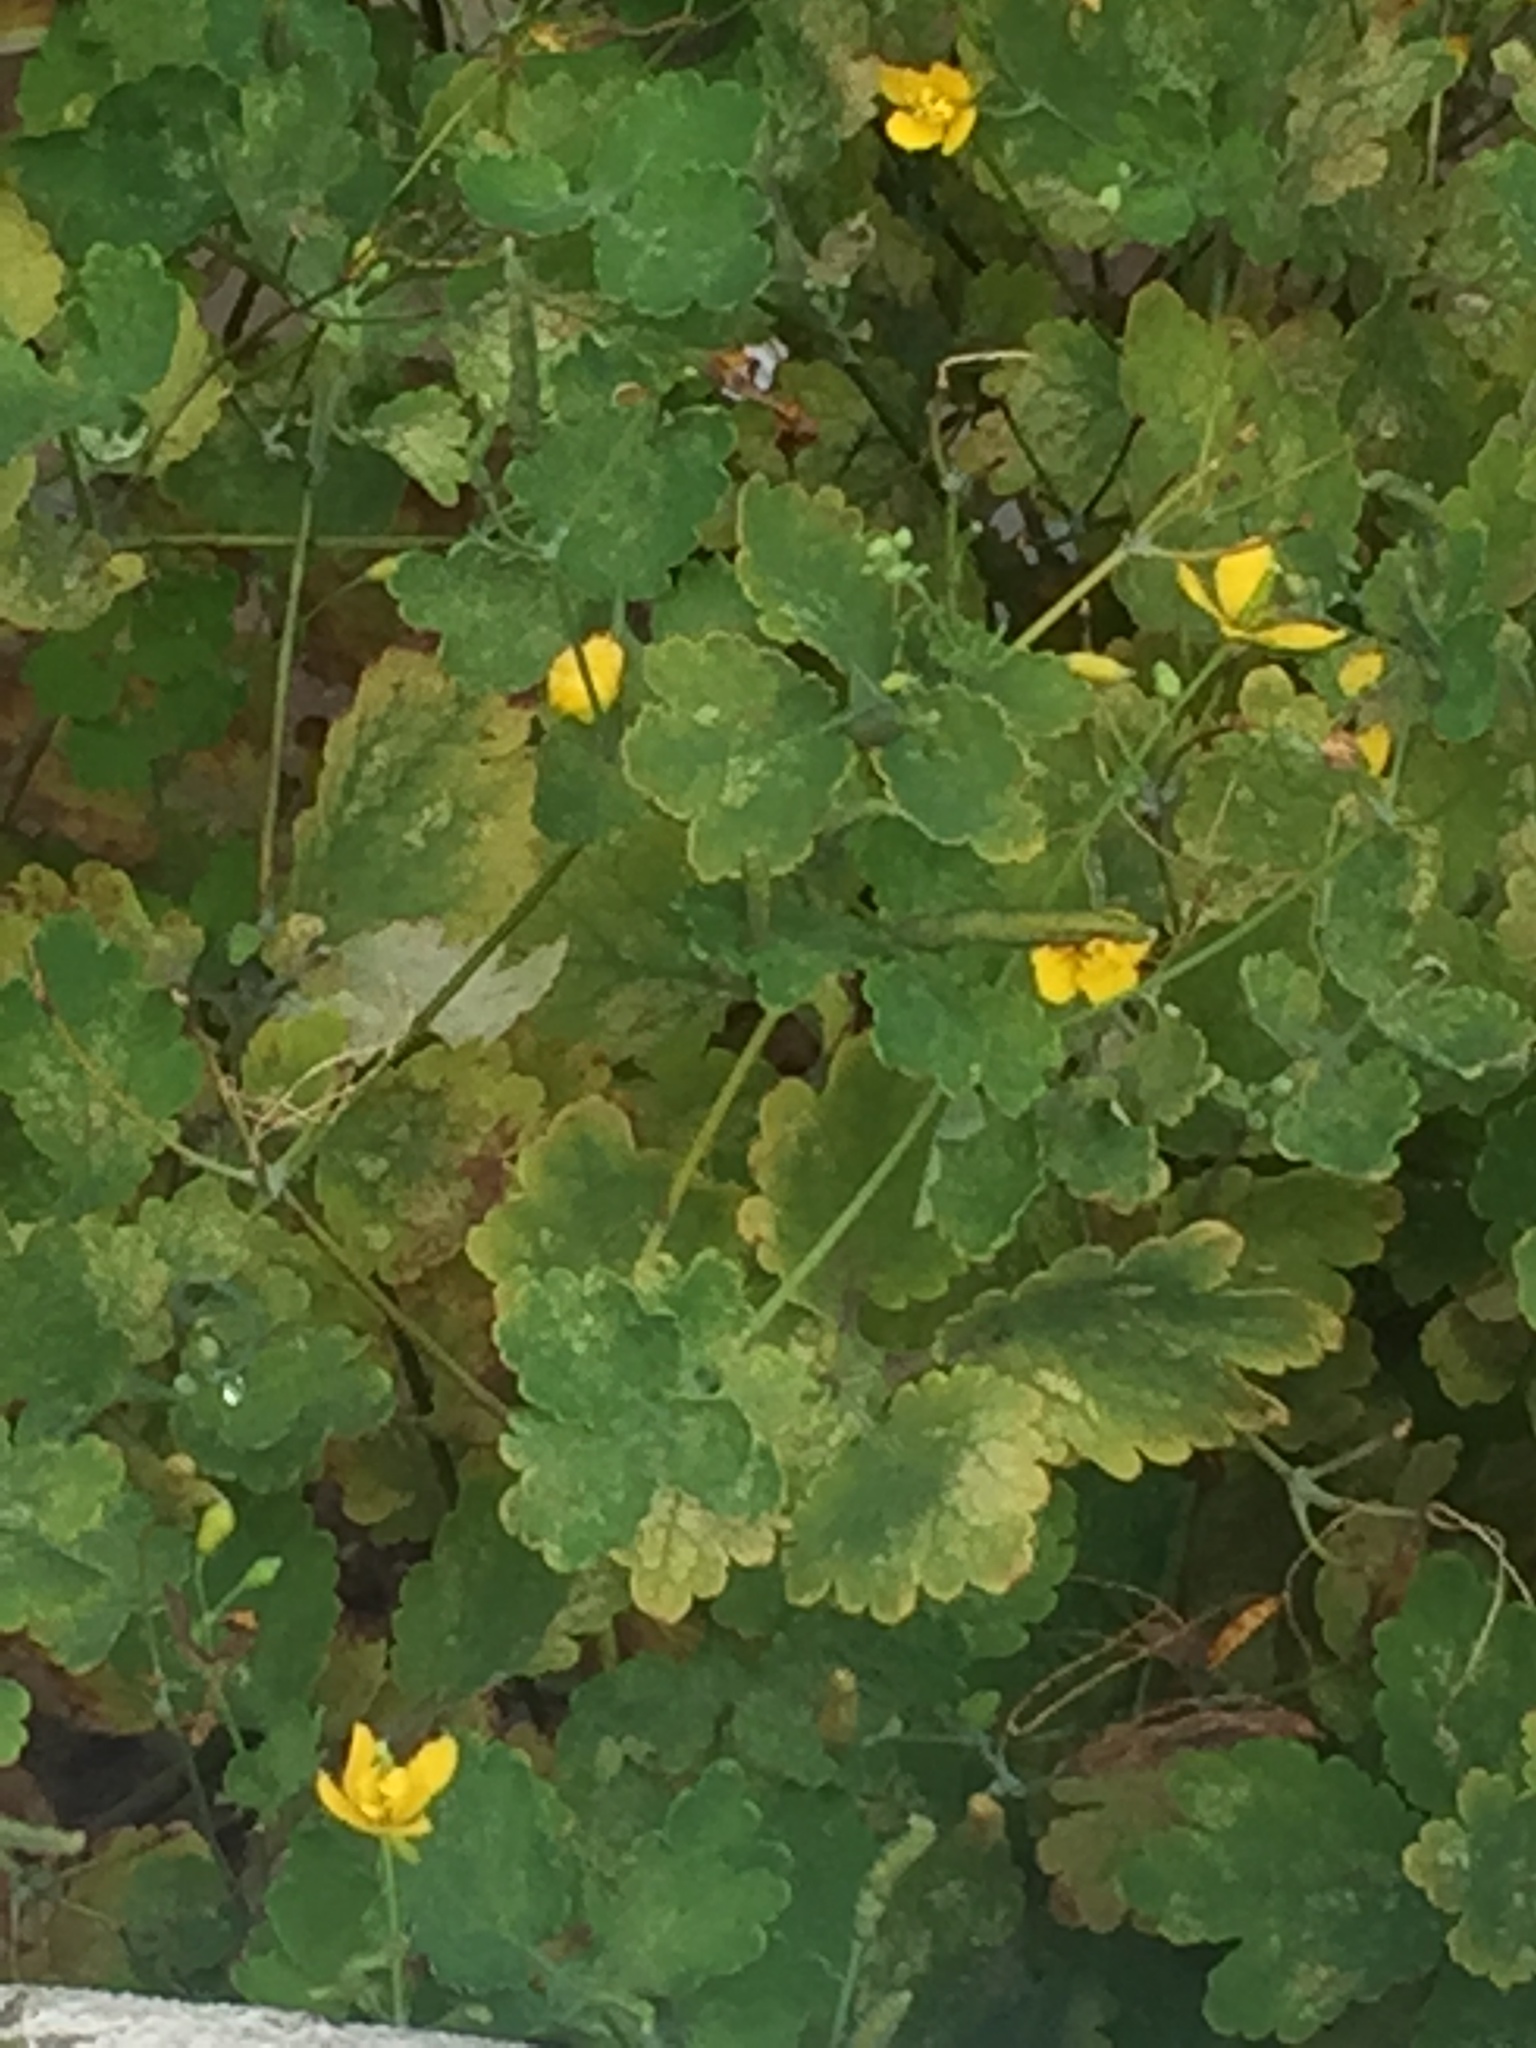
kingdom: Plantae
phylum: Tracheophyta
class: Magnoliopsida
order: Ranunculales
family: Papaveraceae
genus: Chelidonium
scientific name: Chelidonium majus
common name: Greater celandine
